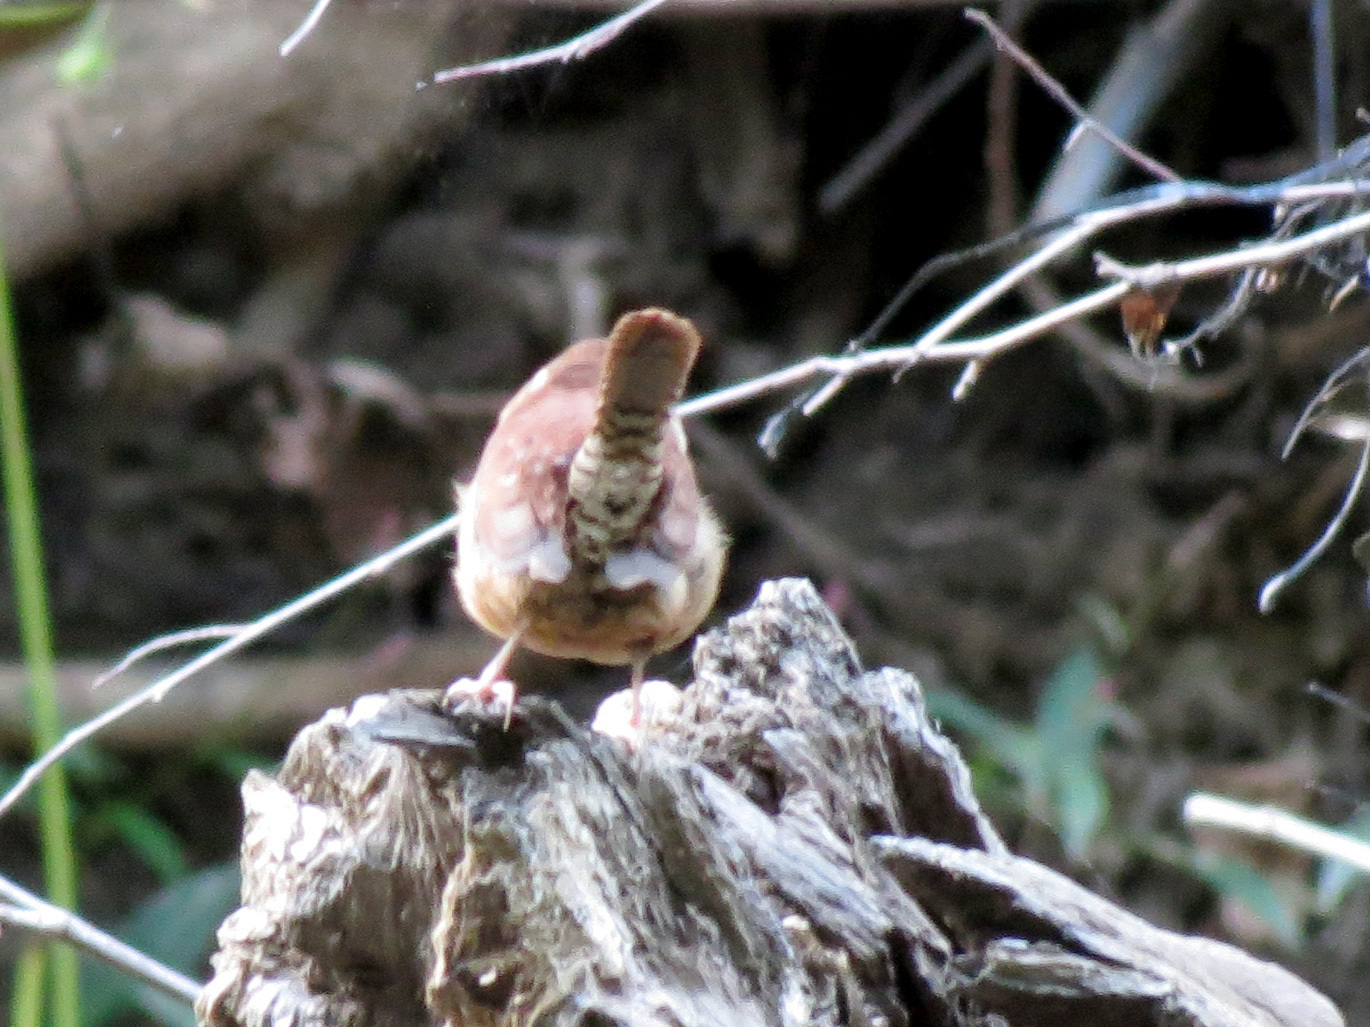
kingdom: Animalia
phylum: Chordata
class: Aves
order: Passeriformes
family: Troglodytidae
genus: Thryothorus
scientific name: Thryothorus ludovicianus
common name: Carolina wren
